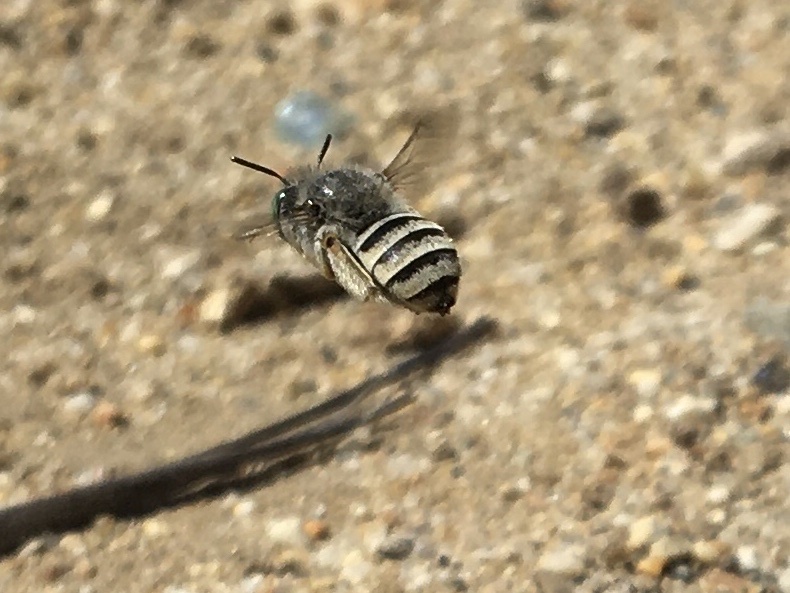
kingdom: Animalia
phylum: Arthropoda
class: Insecta
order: Hymenoptera
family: Apidae
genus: Anthophora
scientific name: Anthophora curta
